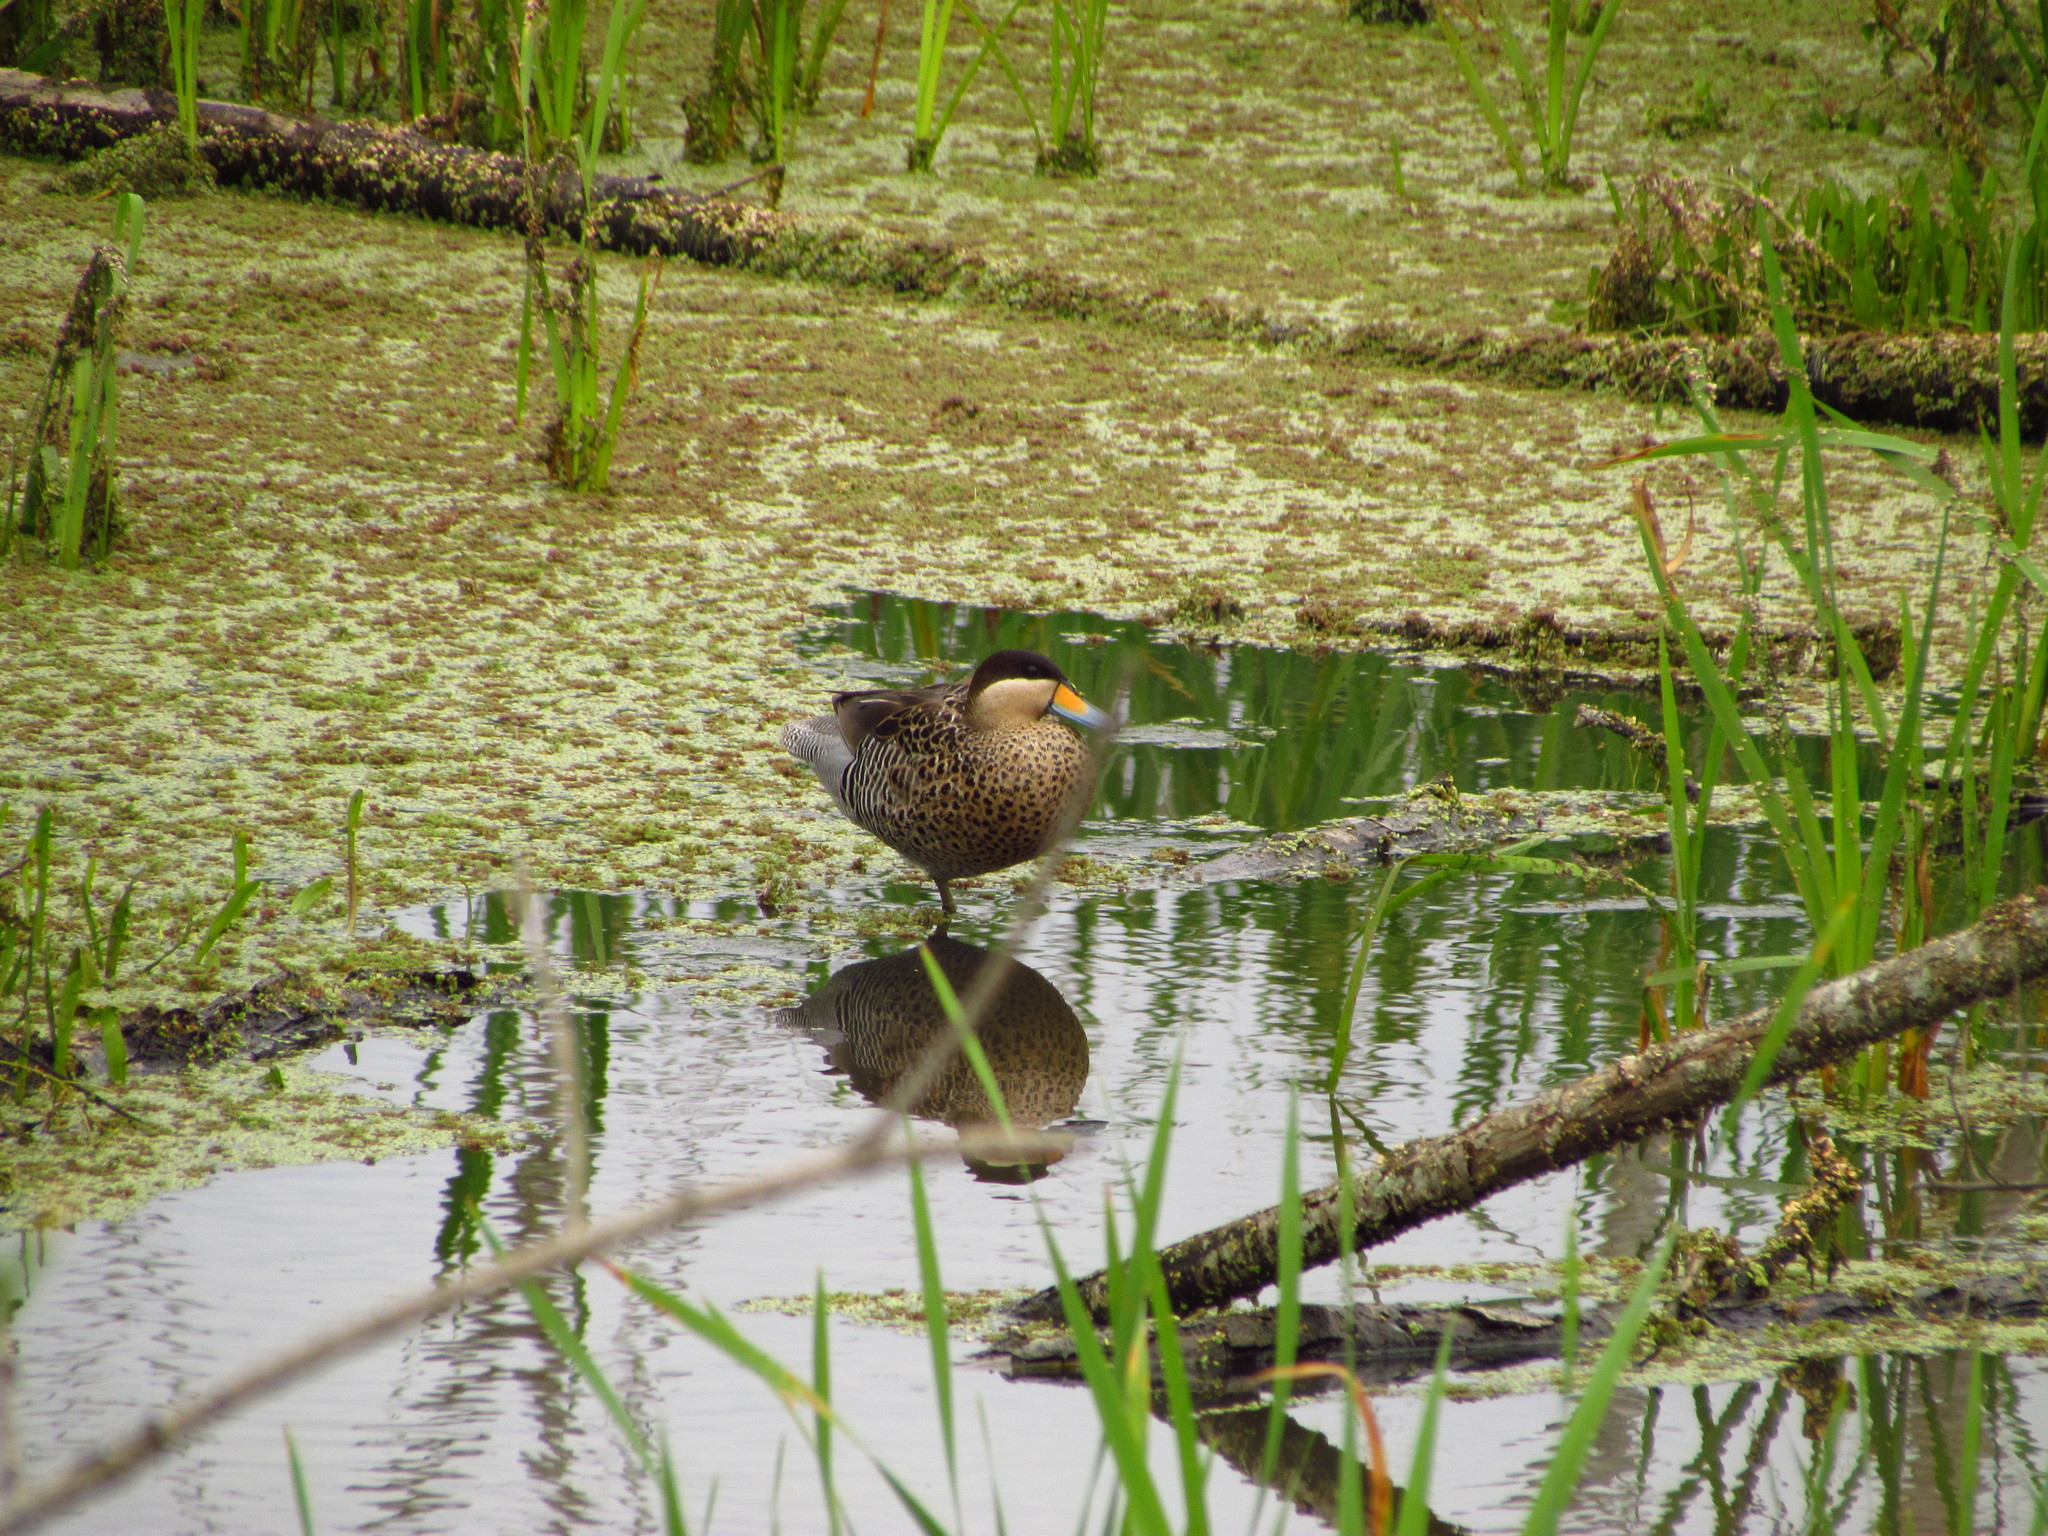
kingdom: Animalia
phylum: Chordata
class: Aves
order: Anseriformes
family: Anatidae
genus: Spatula
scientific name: Spatula versicolor
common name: Silver teal
